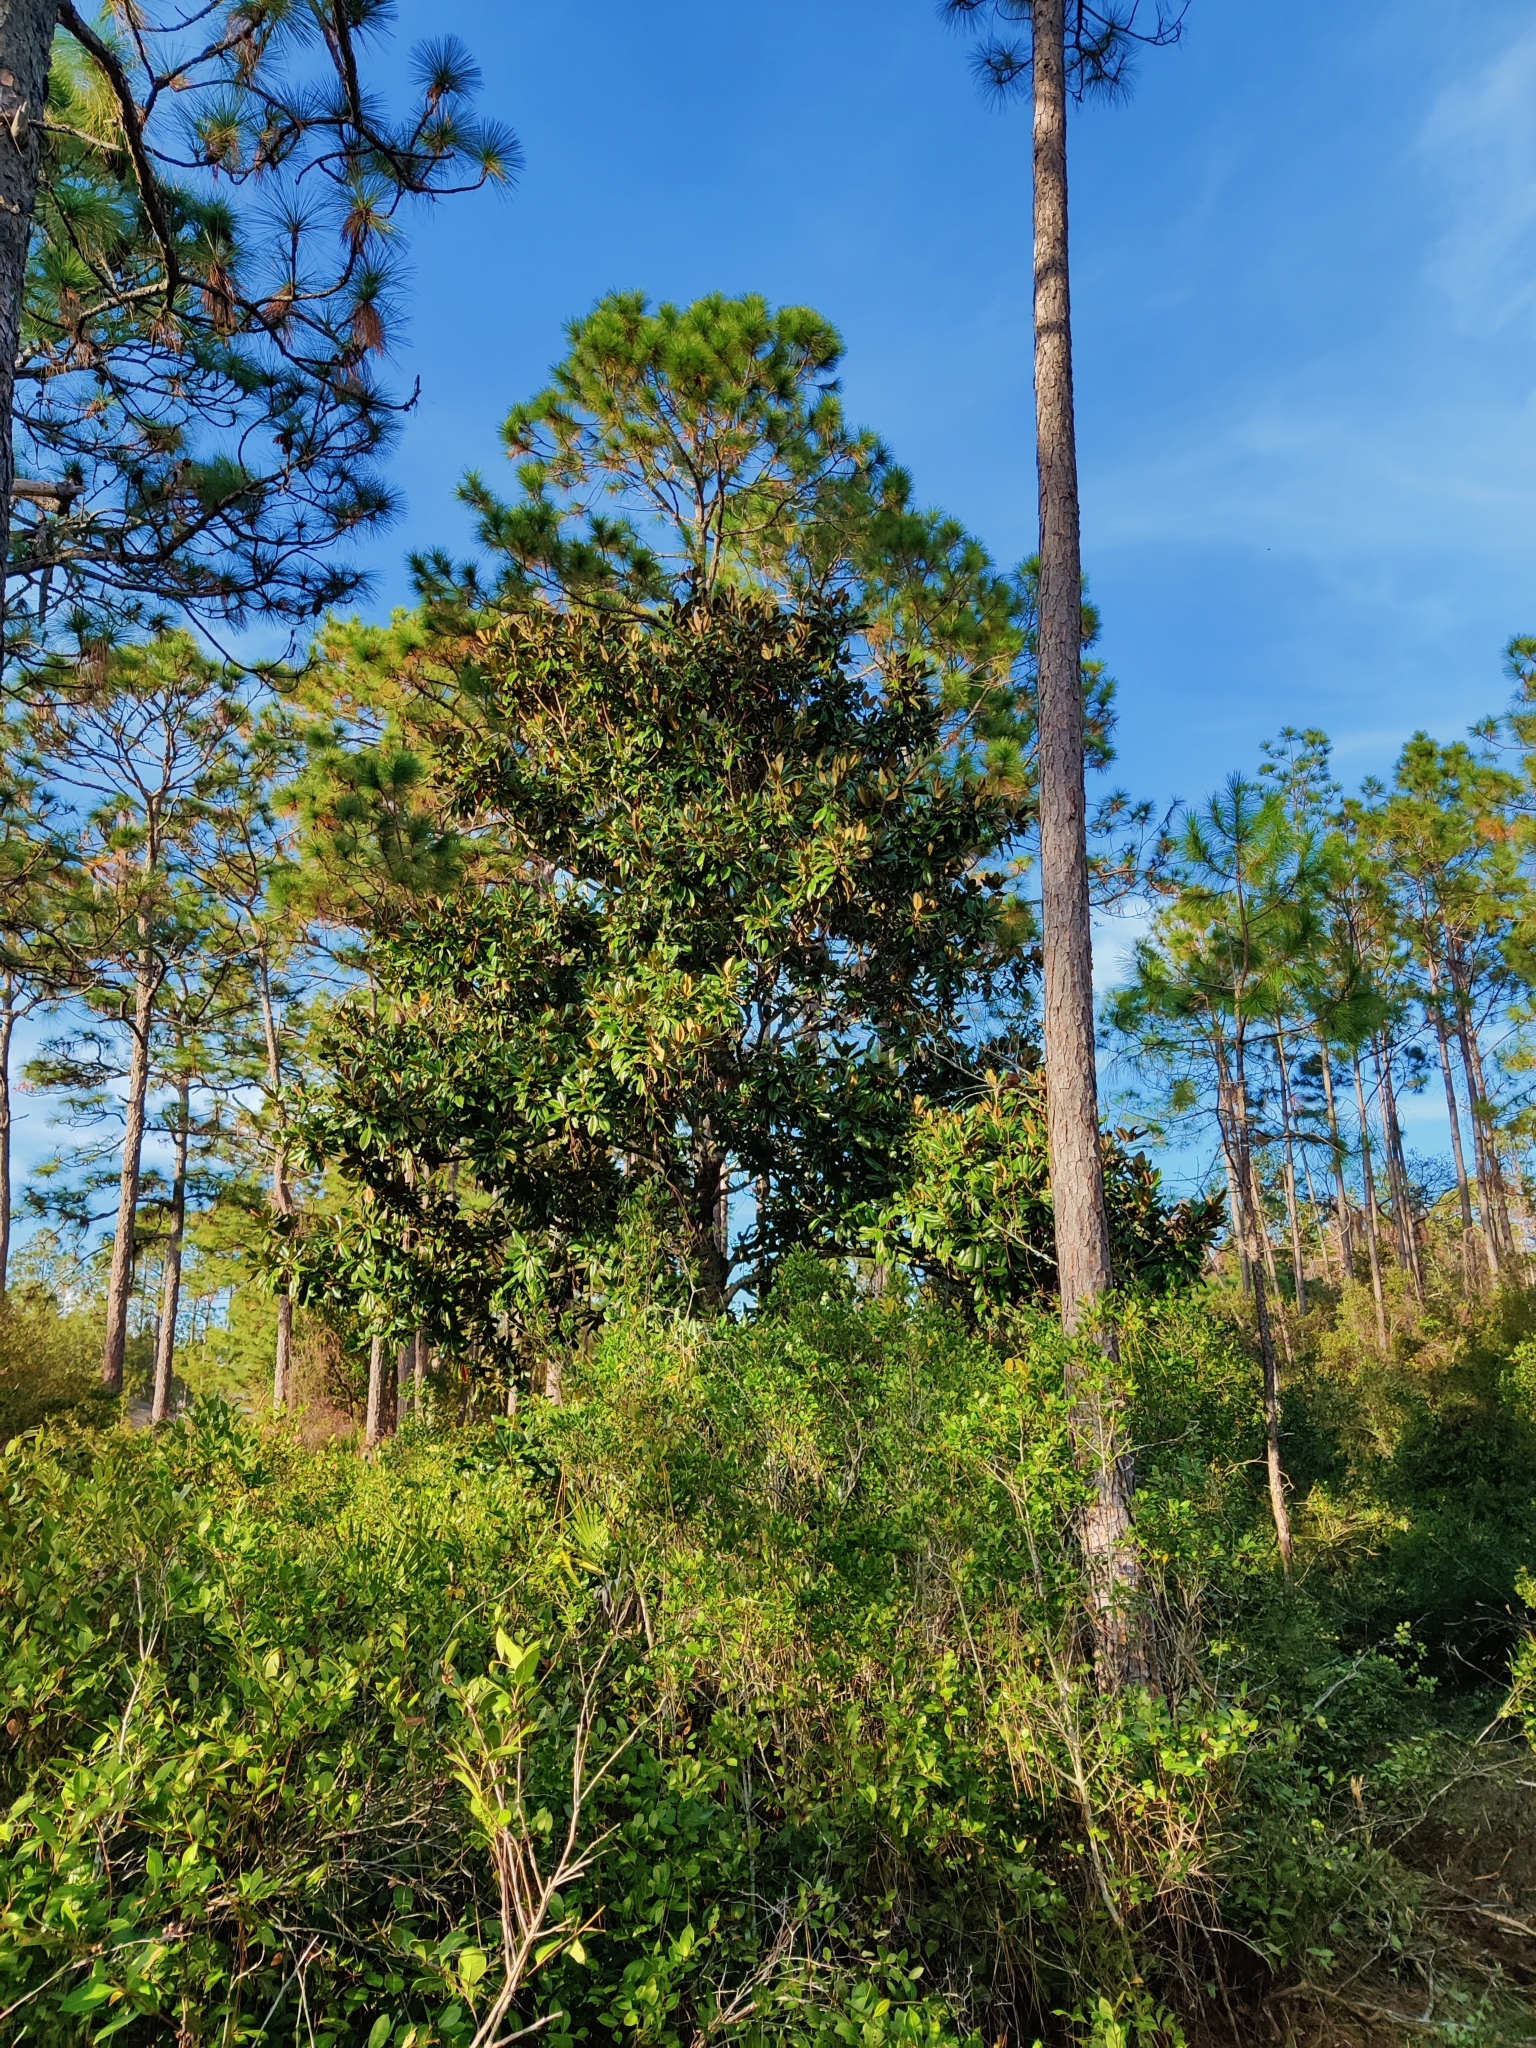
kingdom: Plantae
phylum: Tracheophyta
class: Magnoliopsida
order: Magnoliales
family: Magnoliaceae
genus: Magnolia
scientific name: Magnolia grandiflora
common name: Southern magnolia
